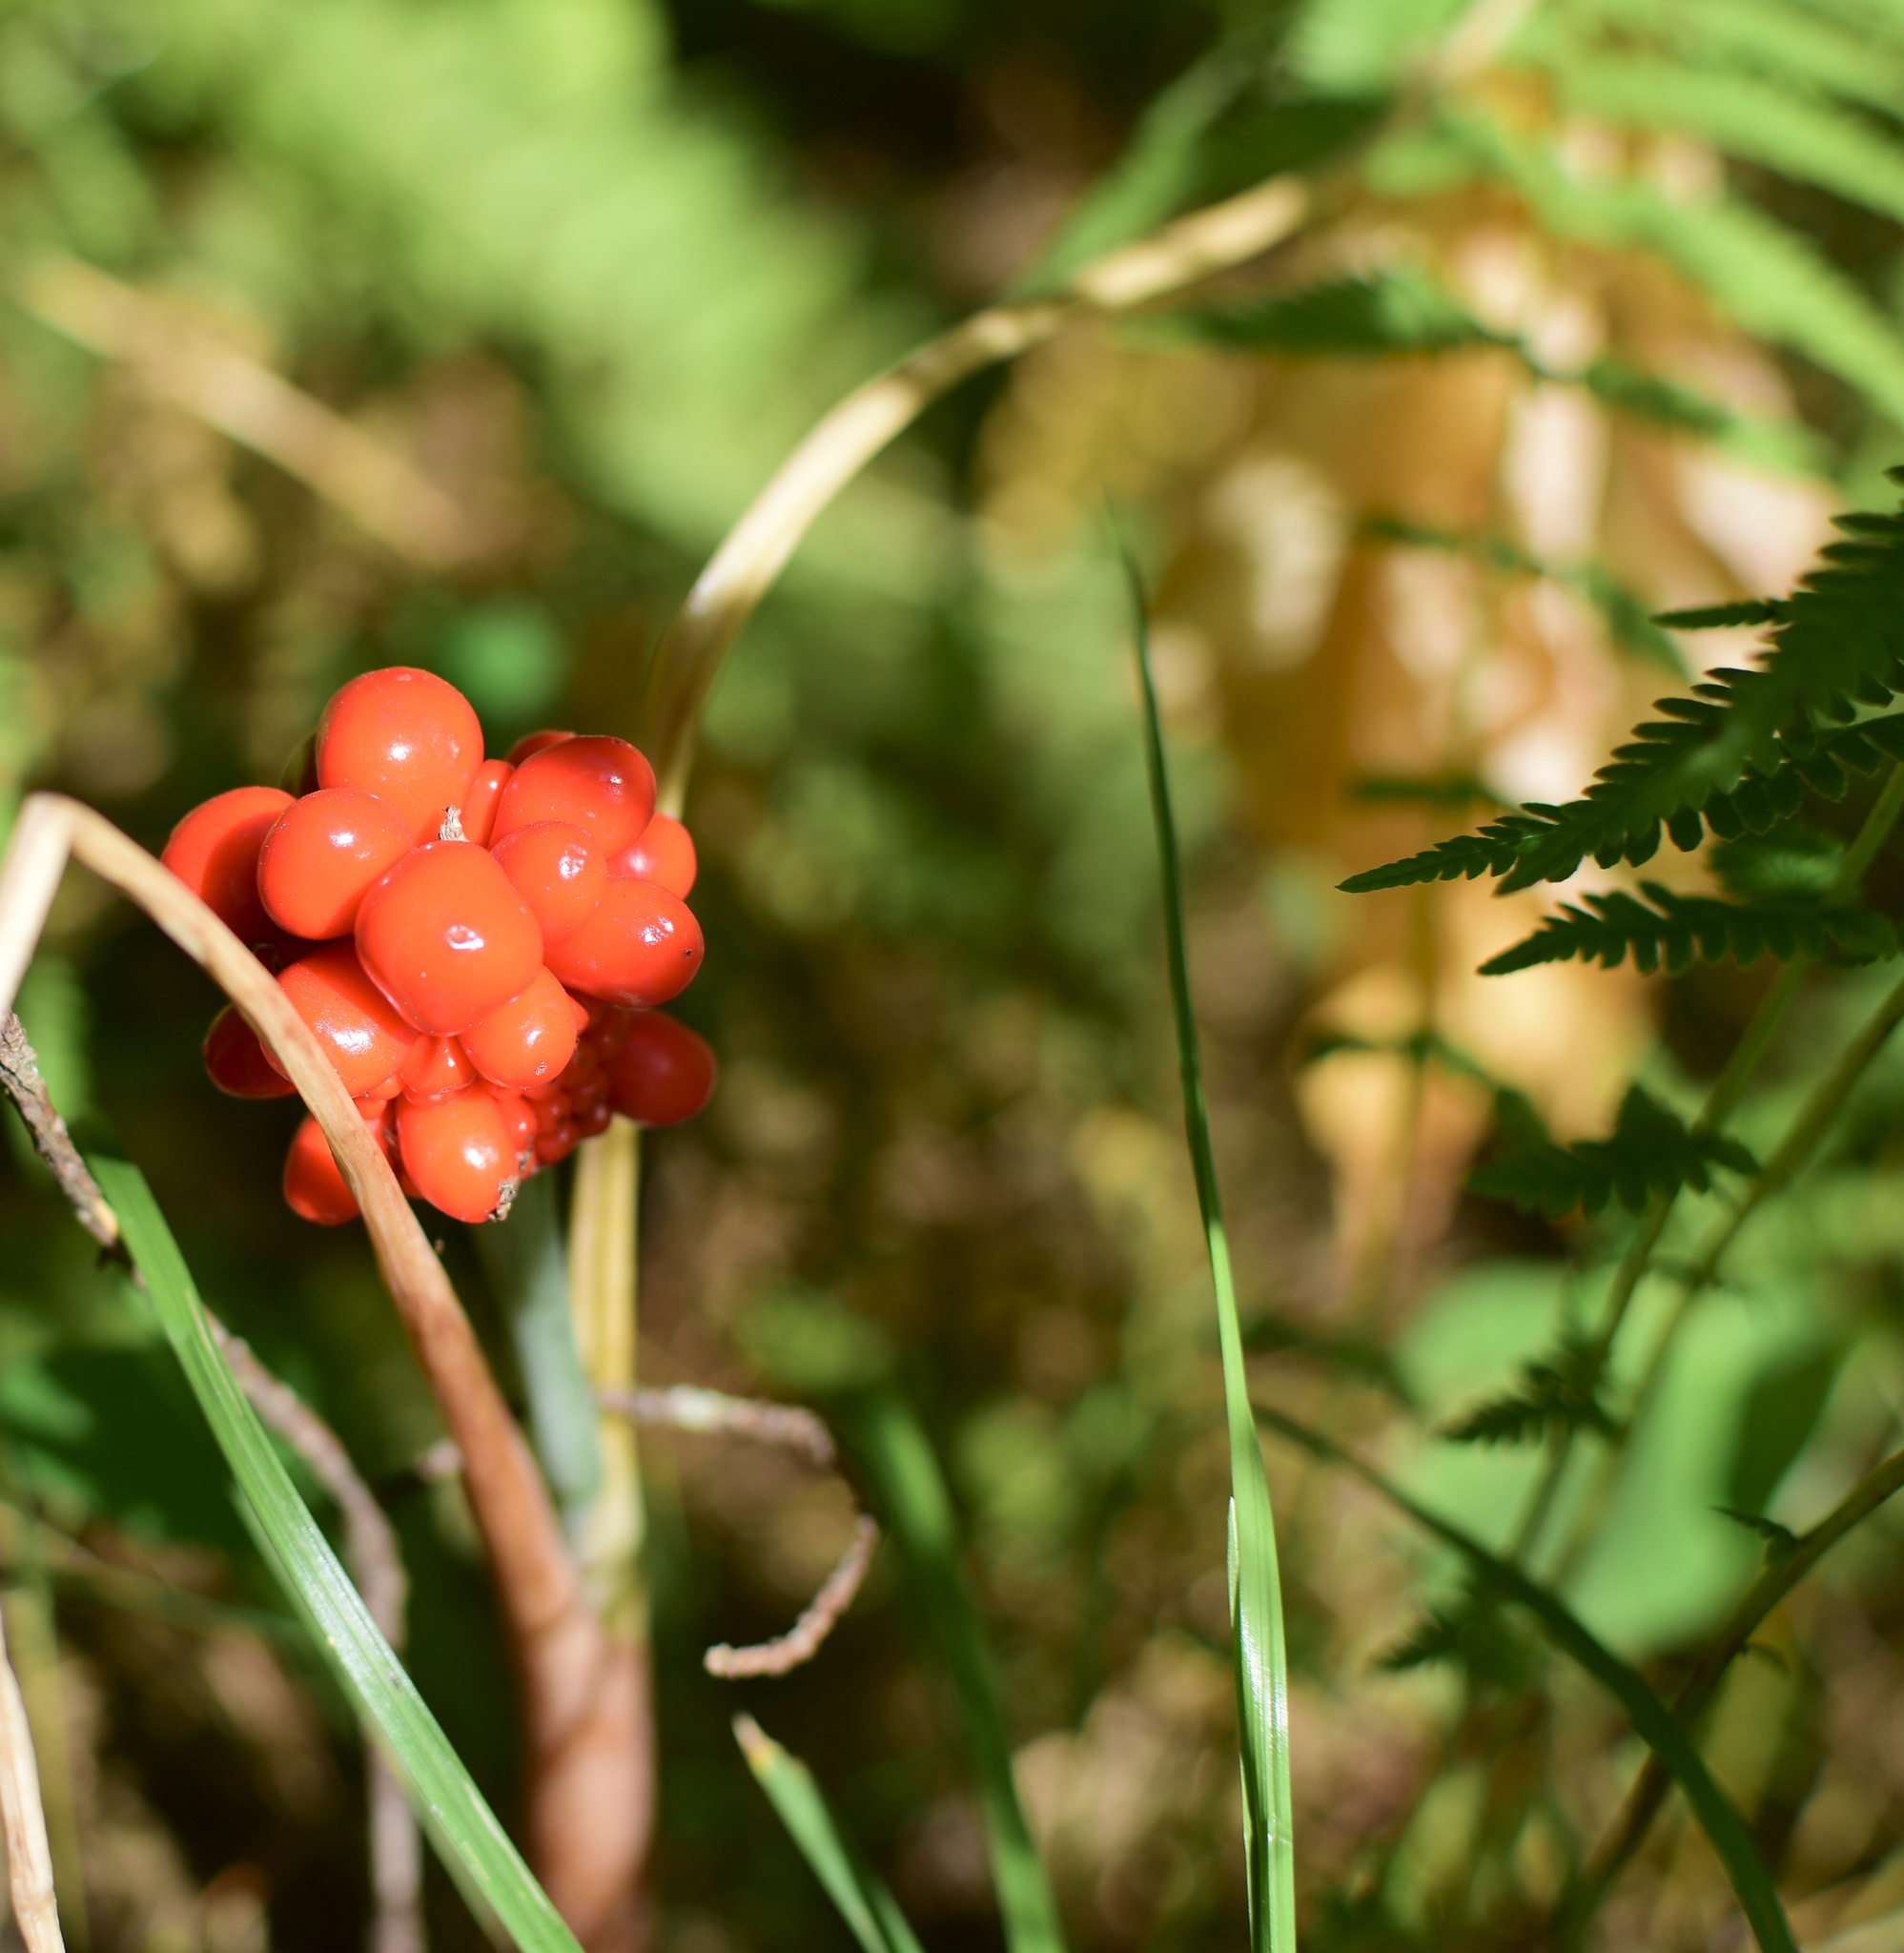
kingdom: Plantae
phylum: Tracheophyta
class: Liliopsida
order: Alismatales
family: Araceae
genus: Arisaema
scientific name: Arisaema triphyllum
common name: Jack-in-the-pulpit
